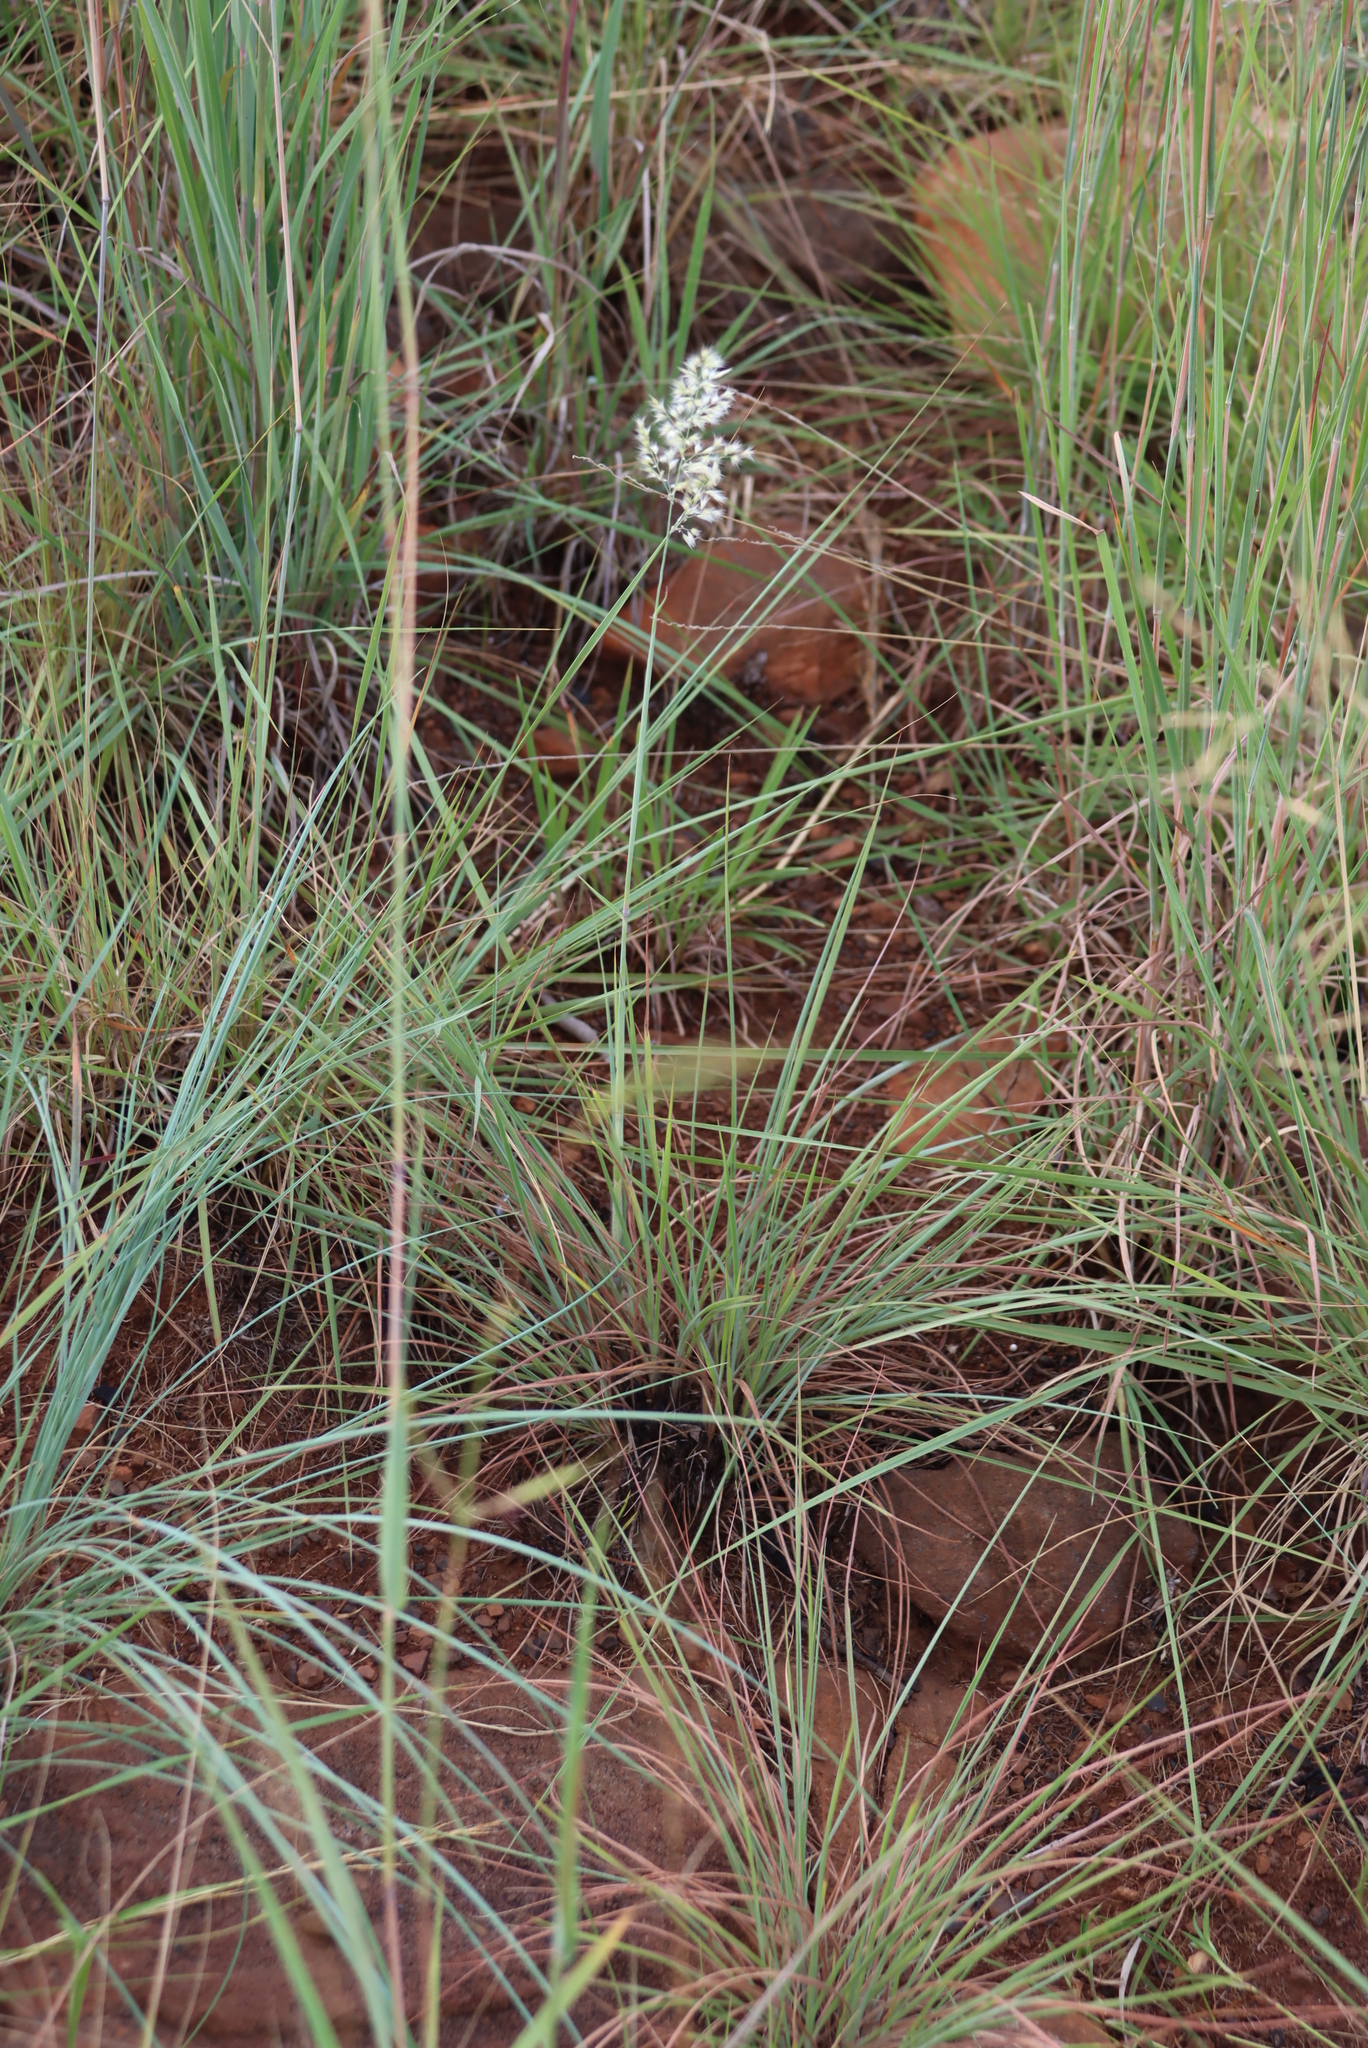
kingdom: Plantae
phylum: Tracheophyta
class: Liliopsida
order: Poales
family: Poaceae
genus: Melinis
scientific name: Melinis nerviglumis
